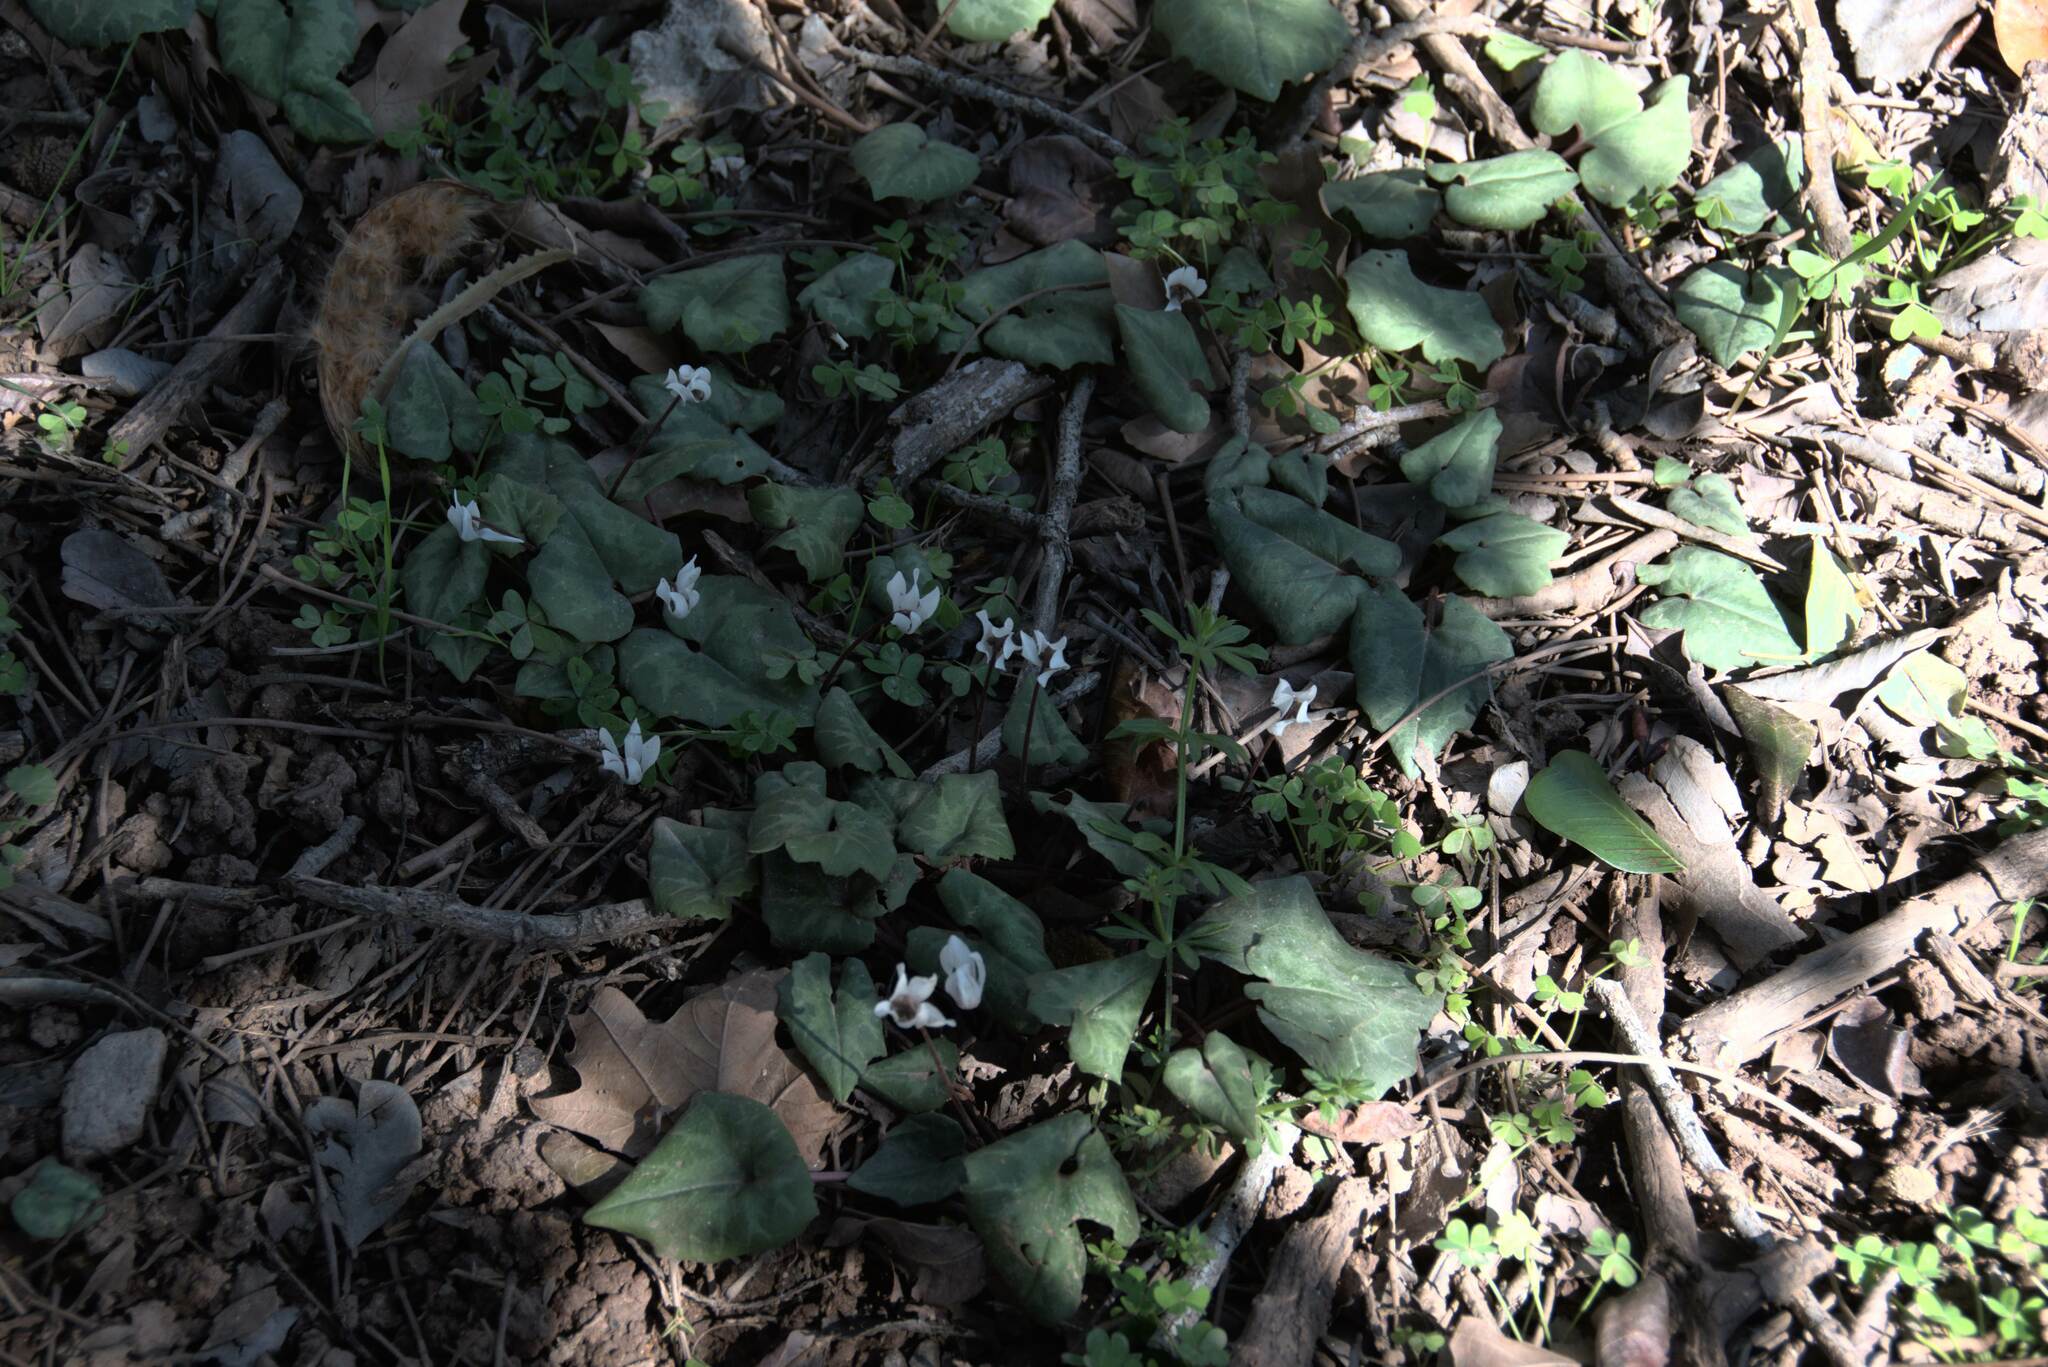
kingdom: Plantae
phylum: Tracheophyta
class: Magnoliopsida
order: Ericales
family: Primulaceae
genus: Cyclamen
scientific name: Cyclamen creticum
